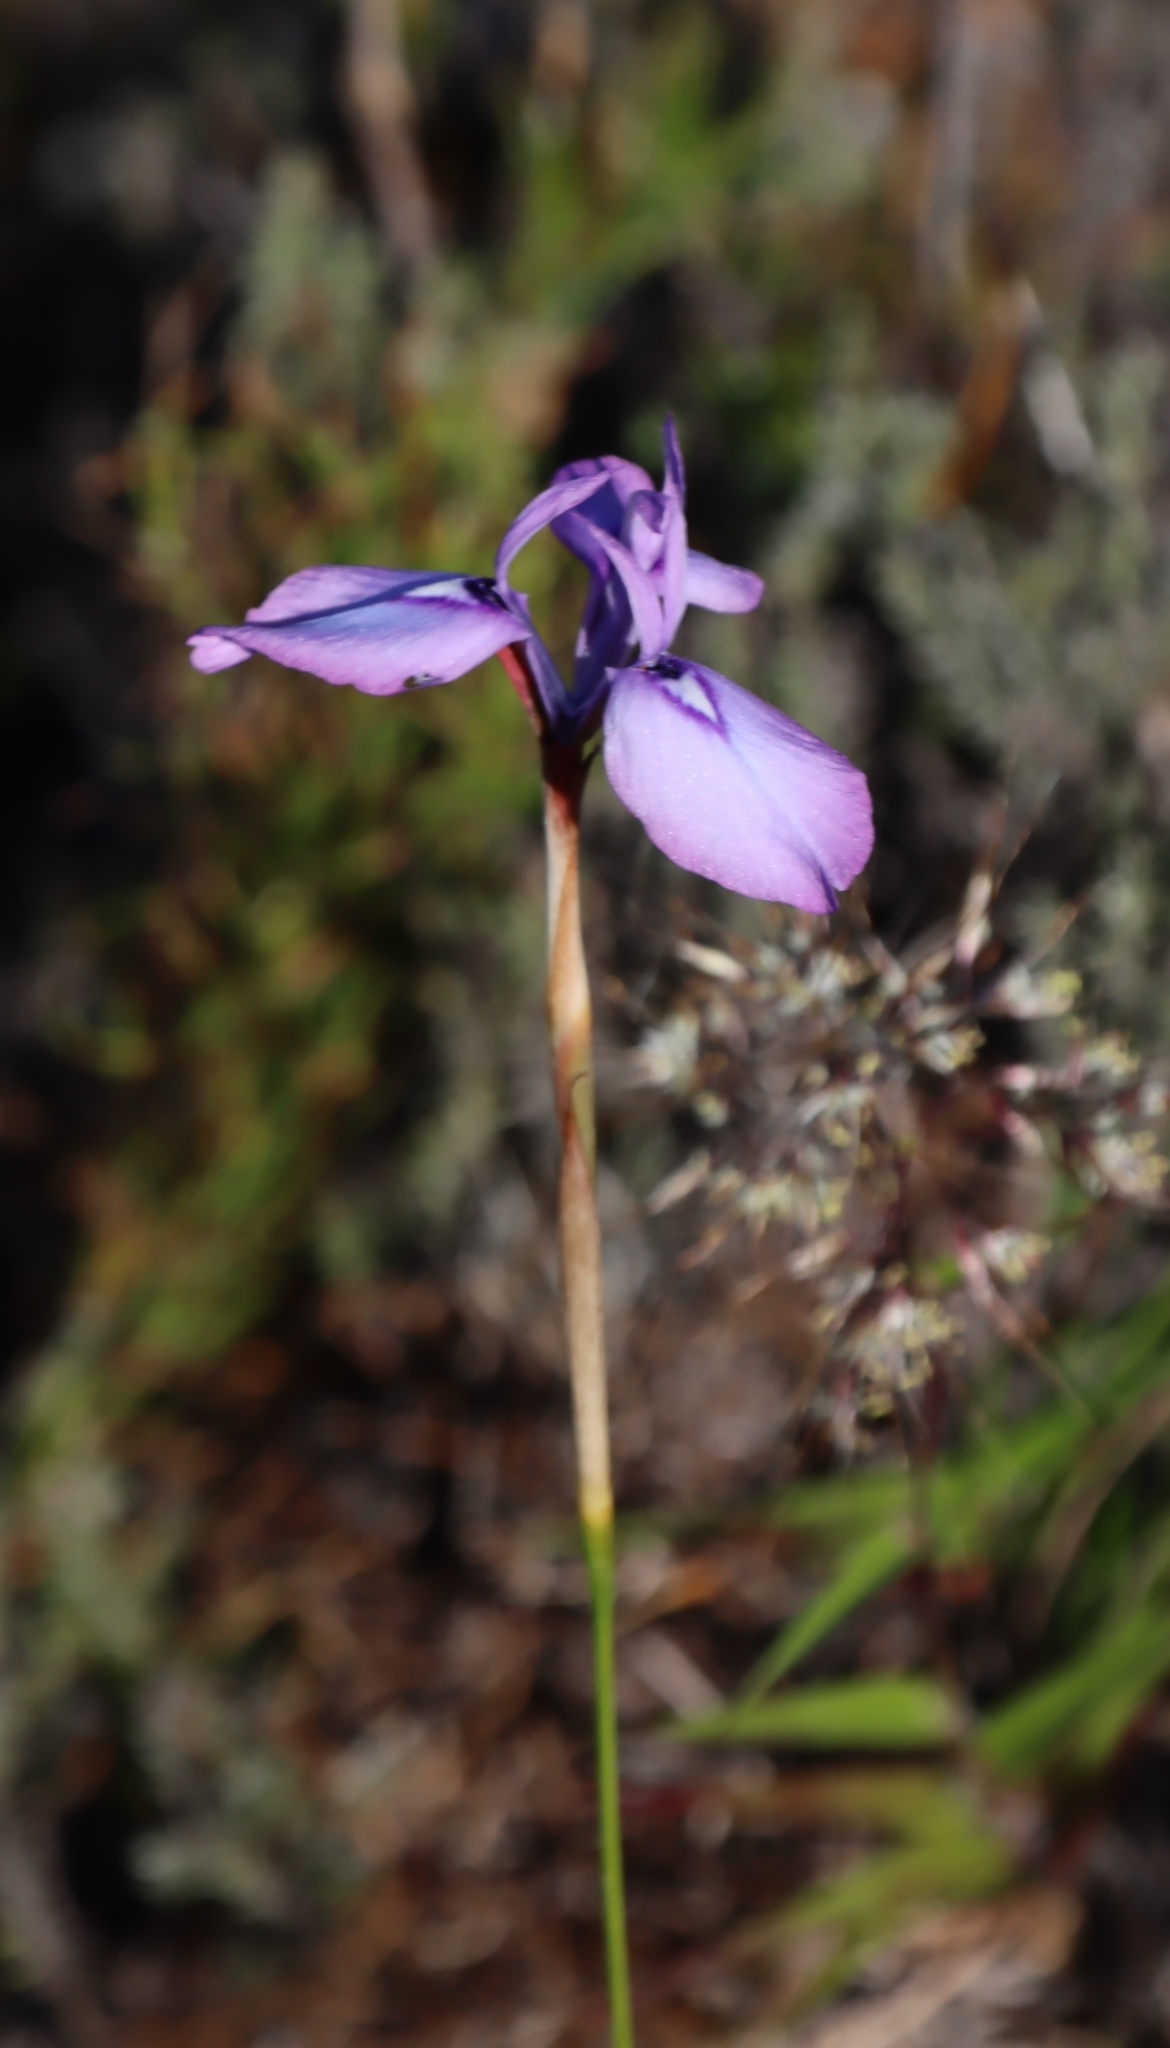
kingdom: Plantae
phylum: Tracheophyta
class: Liliopsida
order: Asparagales
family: Iridaceae
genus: Moraea
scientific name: Moraea tripetala
